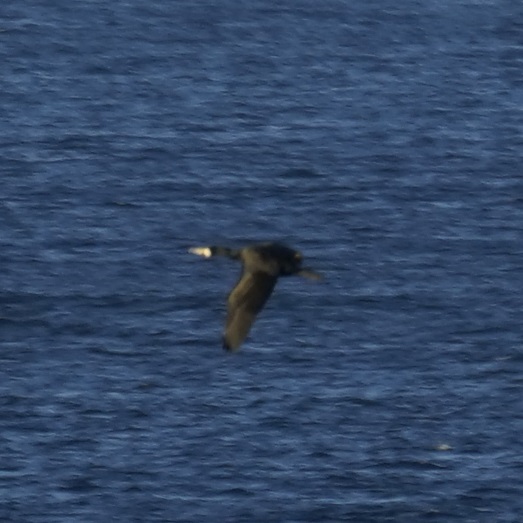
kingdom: Animalia
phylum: Chordata
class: Aves
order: Suliformes
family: Phalacrocoracidae
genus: Phalacrocorax
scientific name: Phalacrocorax carbo
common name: Great cormorant
